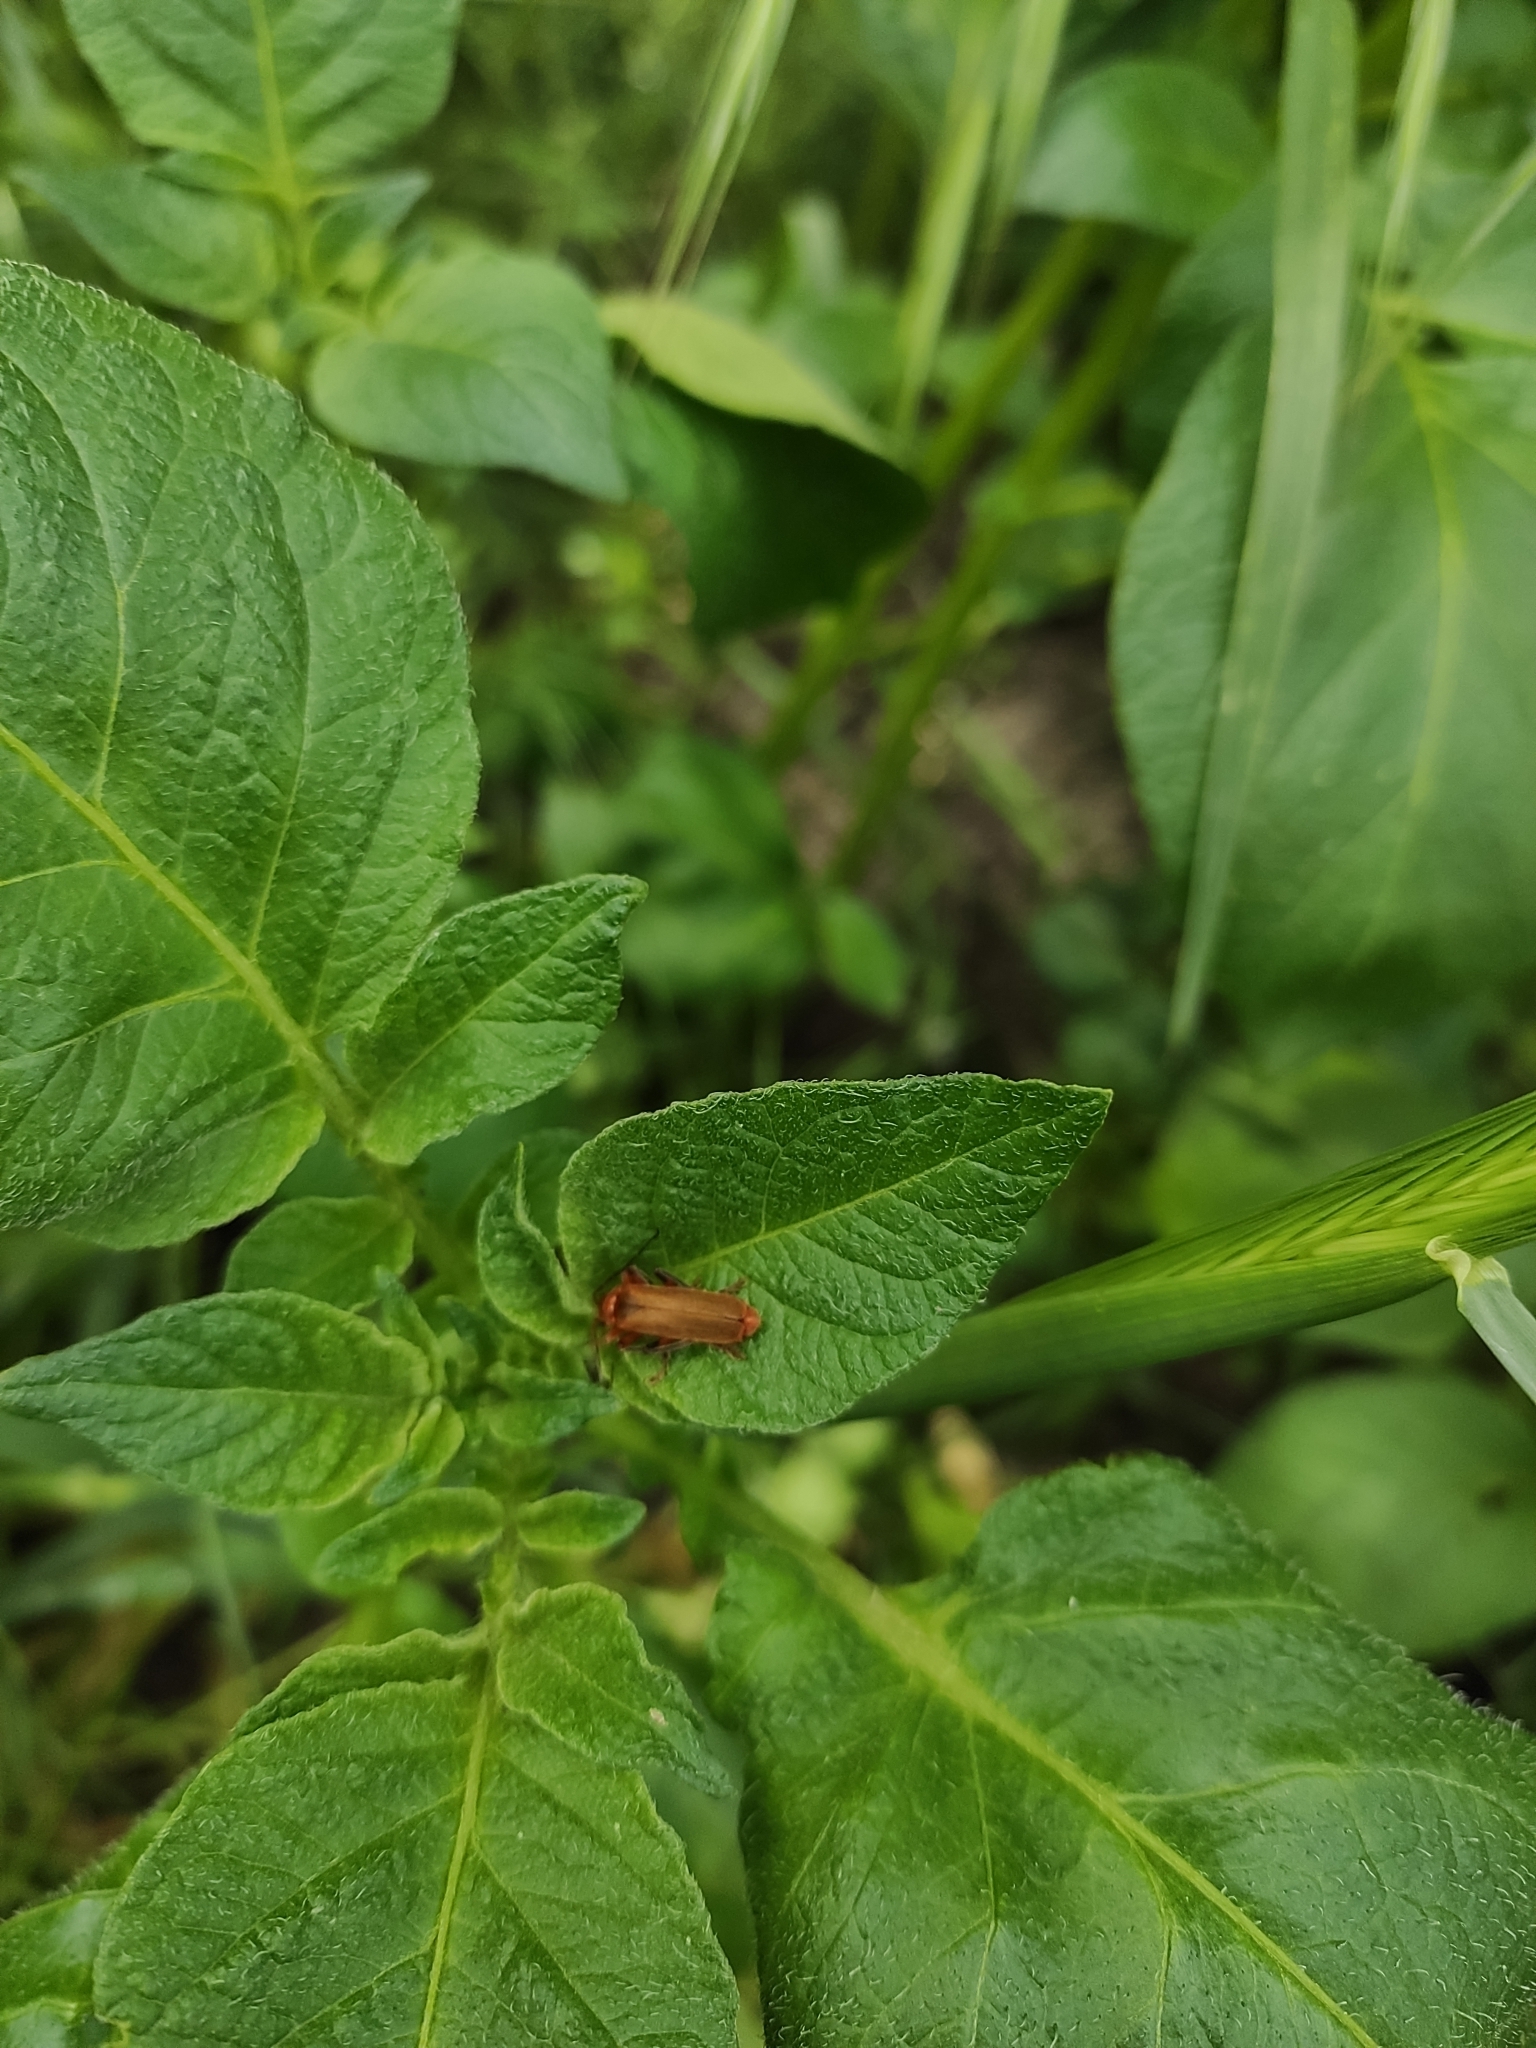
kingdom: Plantae
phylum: Tracheophyta
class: Magnoliopsida
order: Solanales
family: Solanaceae
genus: Solanum
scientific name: Solanum tuberosum
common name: Potato
